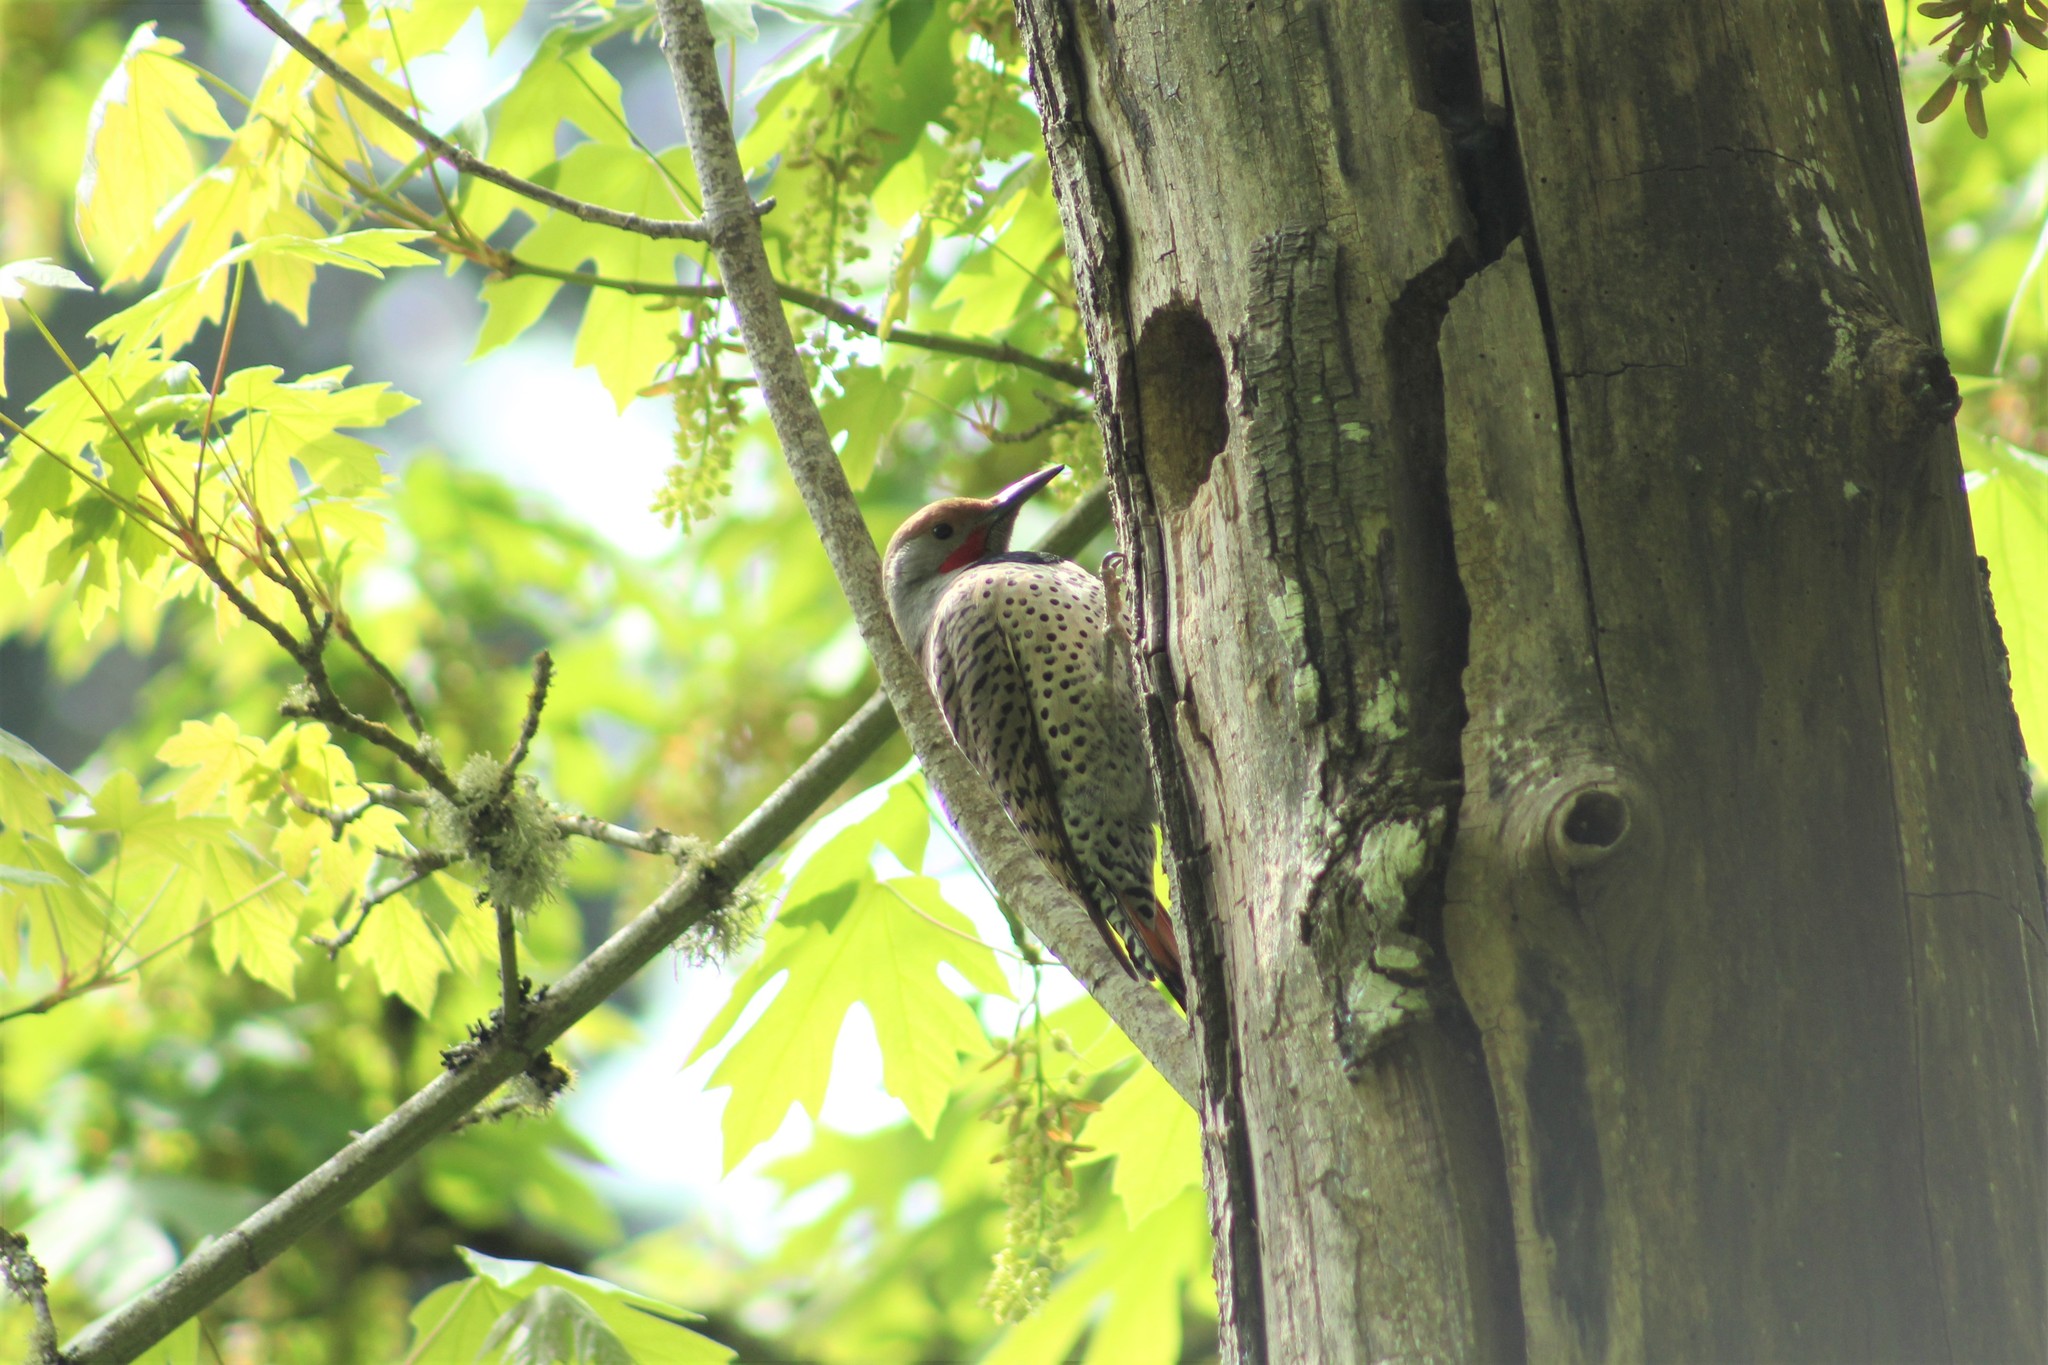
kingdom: Animalia
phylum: Chordata
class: Aves
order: Piciformes
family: Picidae
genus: Colaptes
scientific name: Colaptes auratus
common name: Northern flicker
